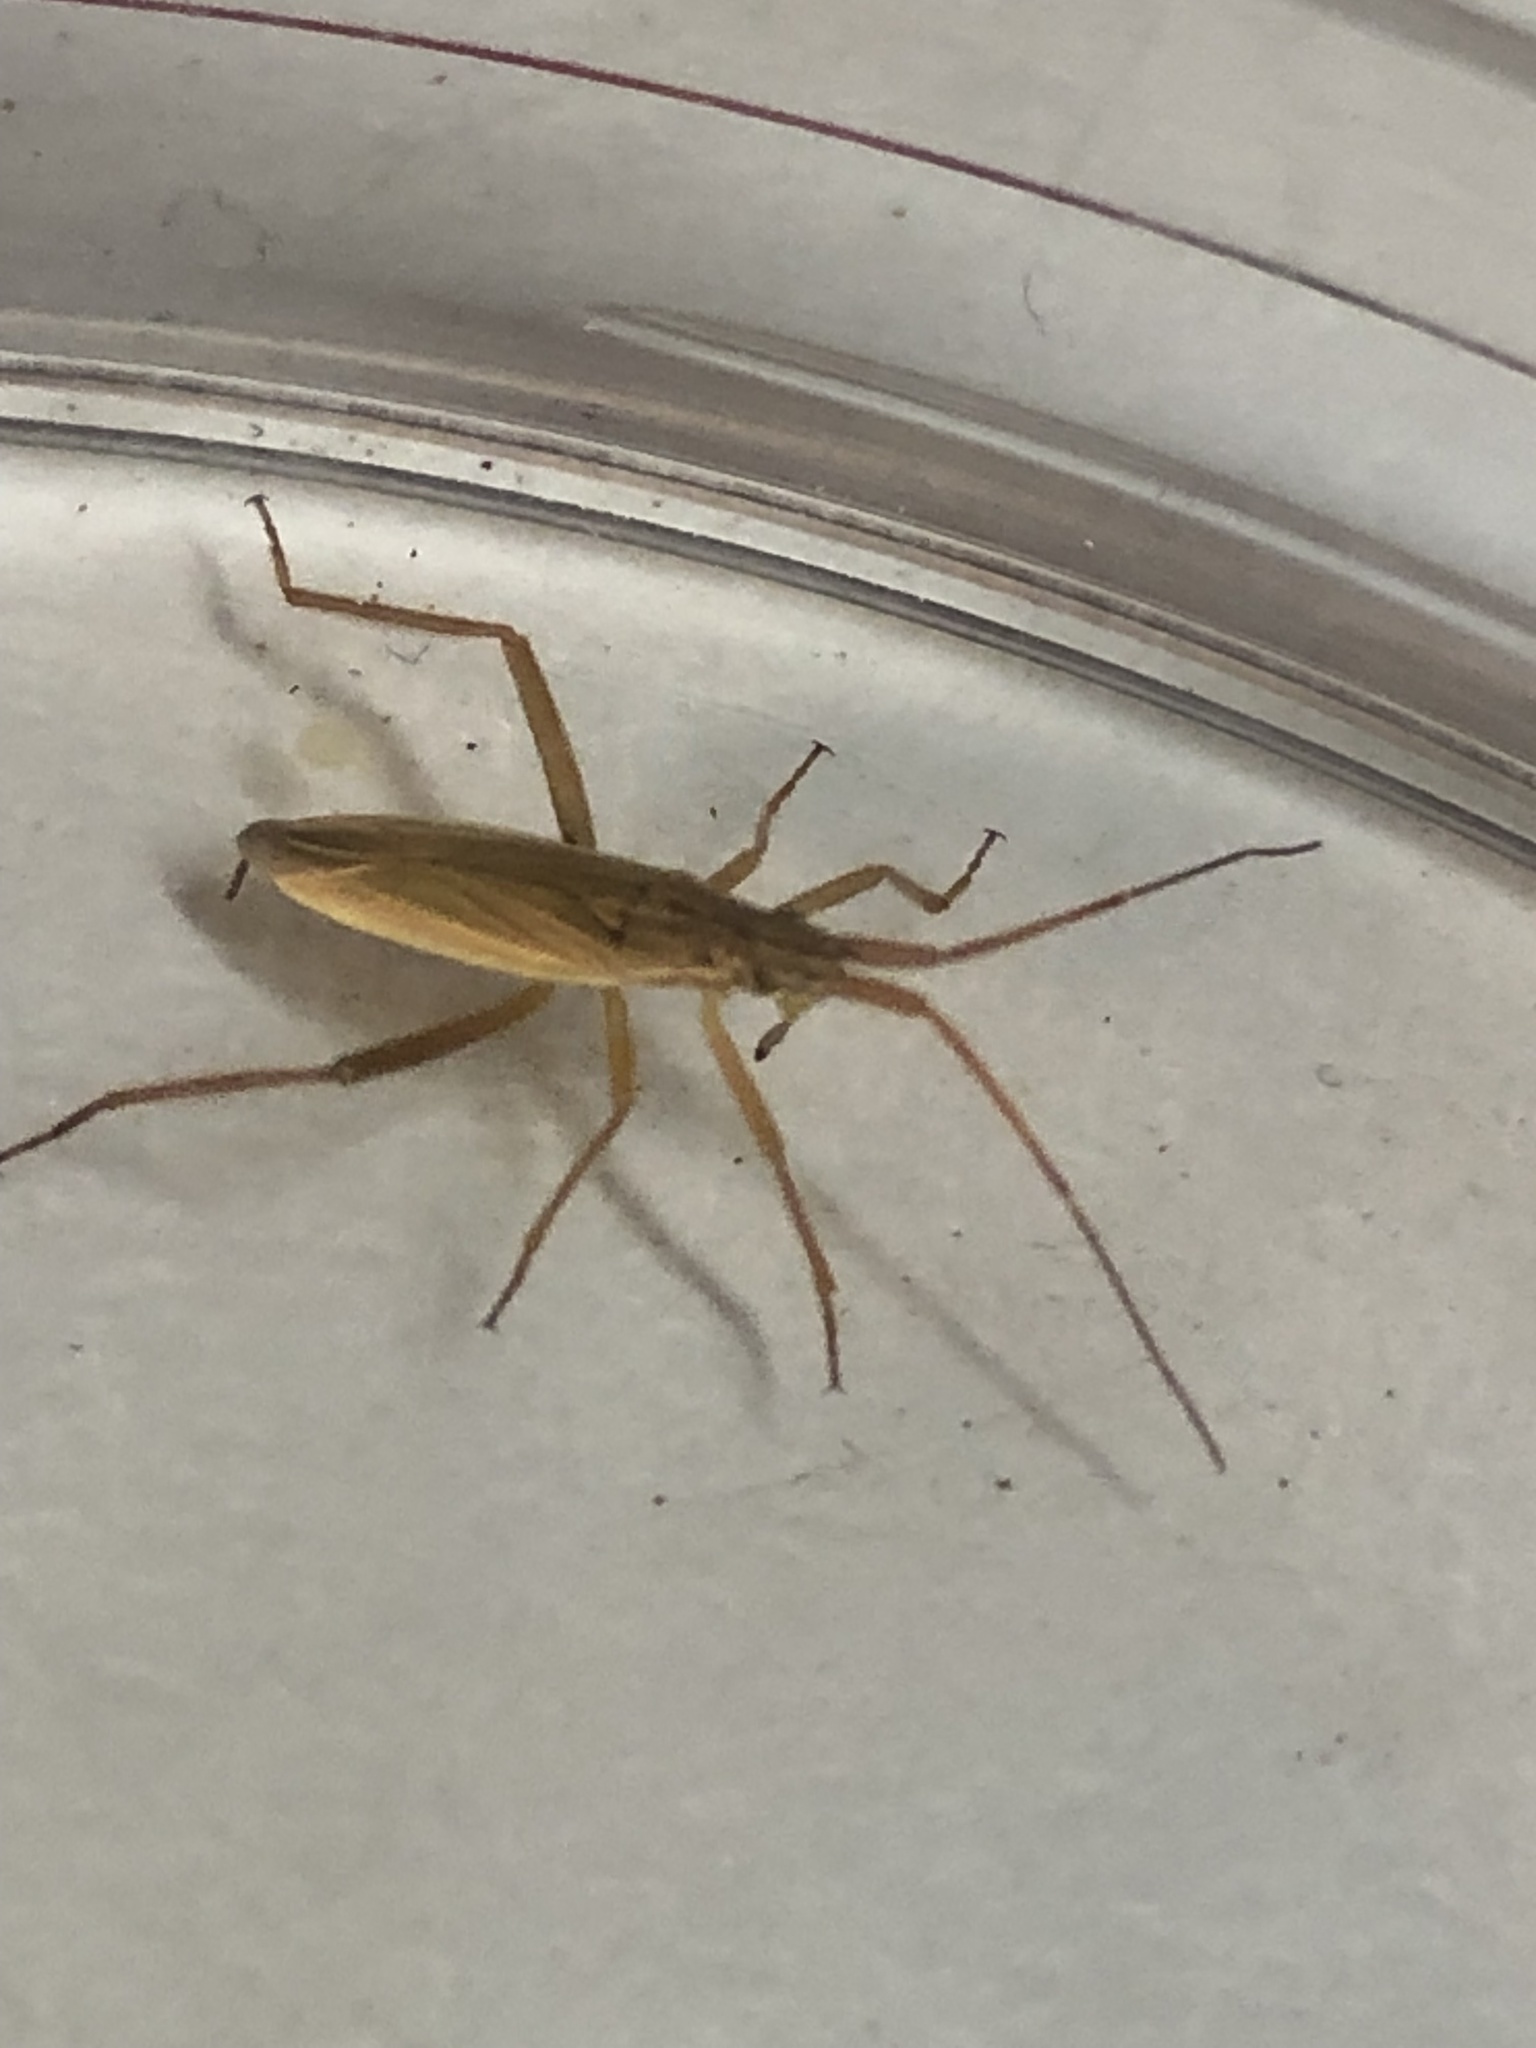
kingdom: Animalia
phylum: Arthropoda
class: Insecta
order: Hemiptera
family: Miridae
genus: Notostira
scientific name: Notostira elongata
